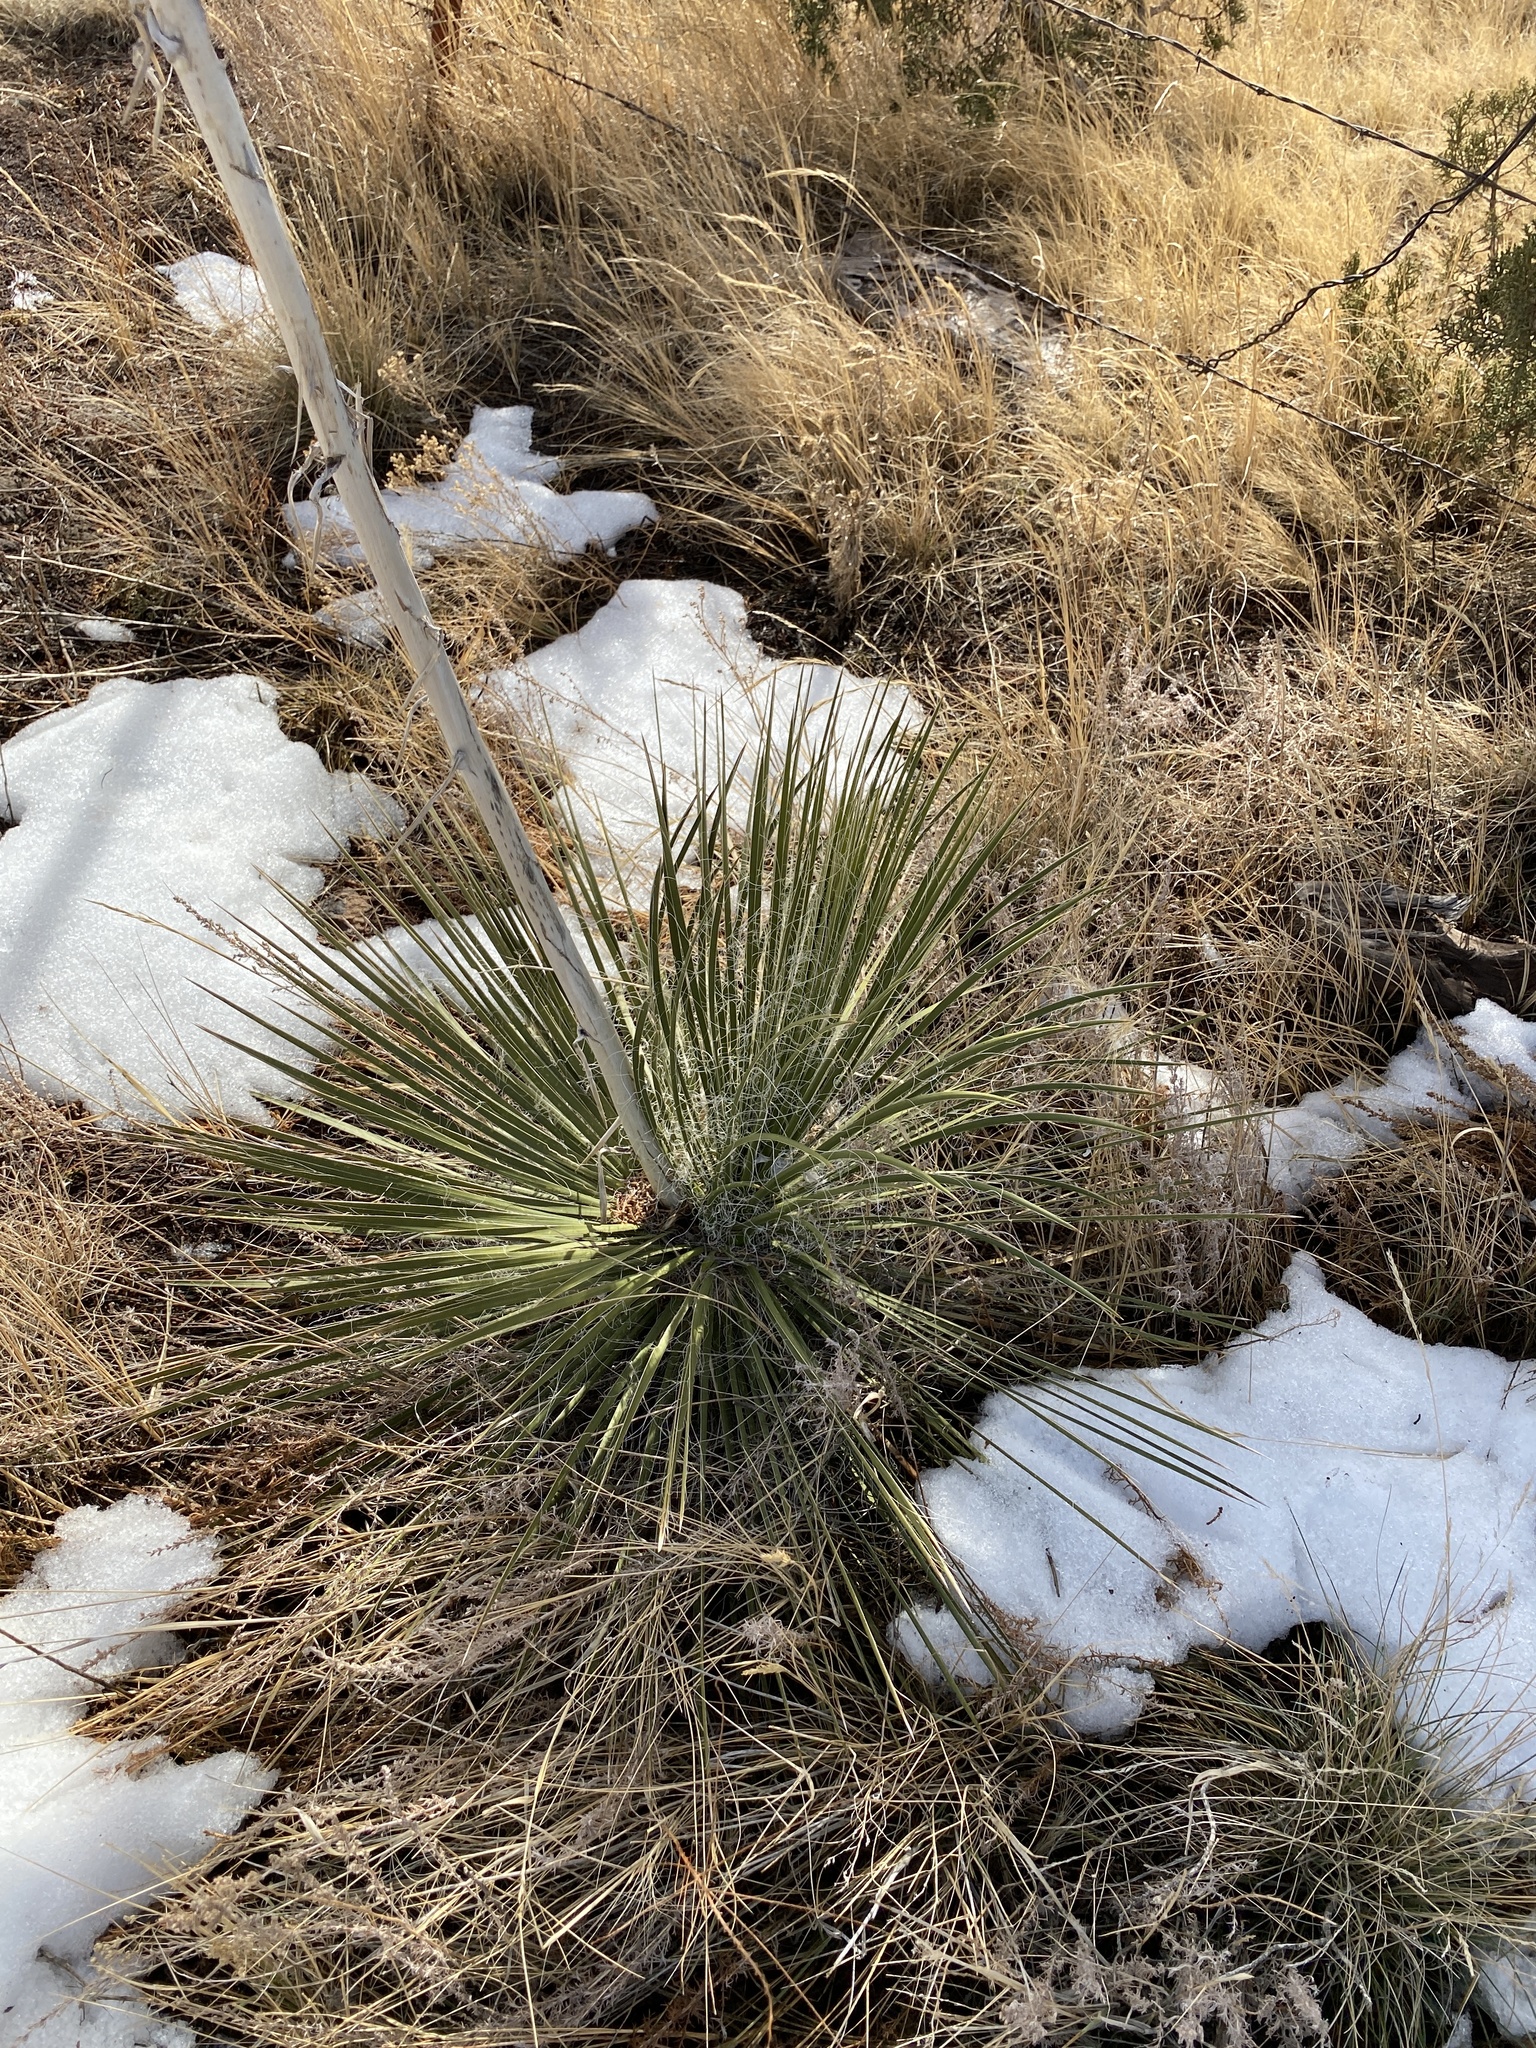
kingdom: Plantae
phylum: Tracheophyta
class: Liliopsida
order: Asparagales
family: Asparagaceae
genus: Yucca
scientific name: Yucca elata
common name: Palmella
